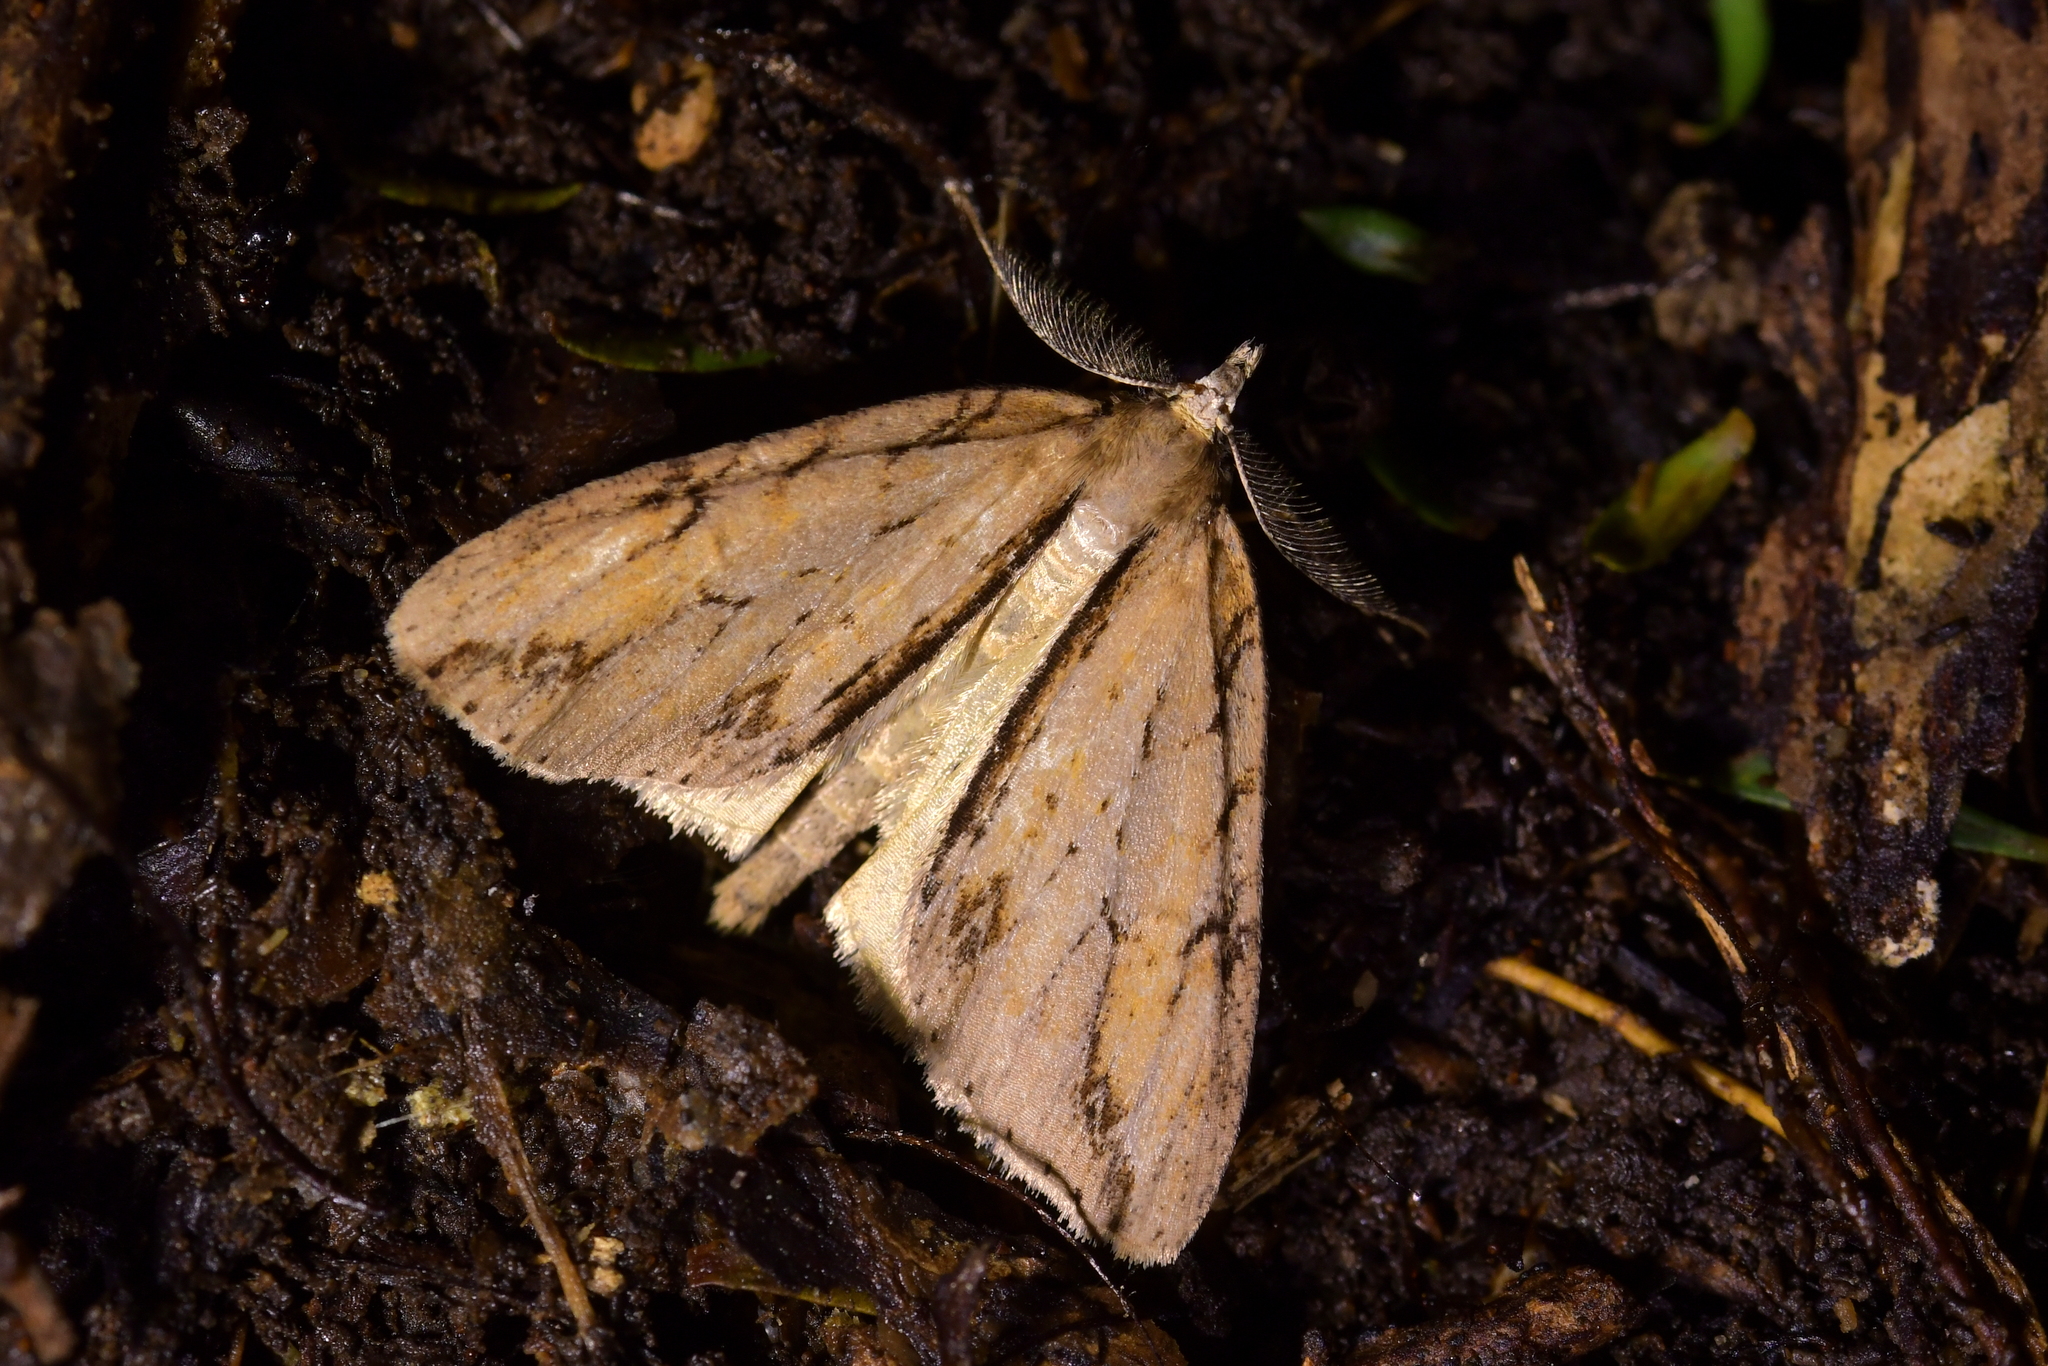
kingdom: Animalia
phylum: Arthropoda
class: Insecta
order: Lepidoptera
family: Geometridae
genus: Pseudocoremia
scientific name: Pseudocoremia lupinata
